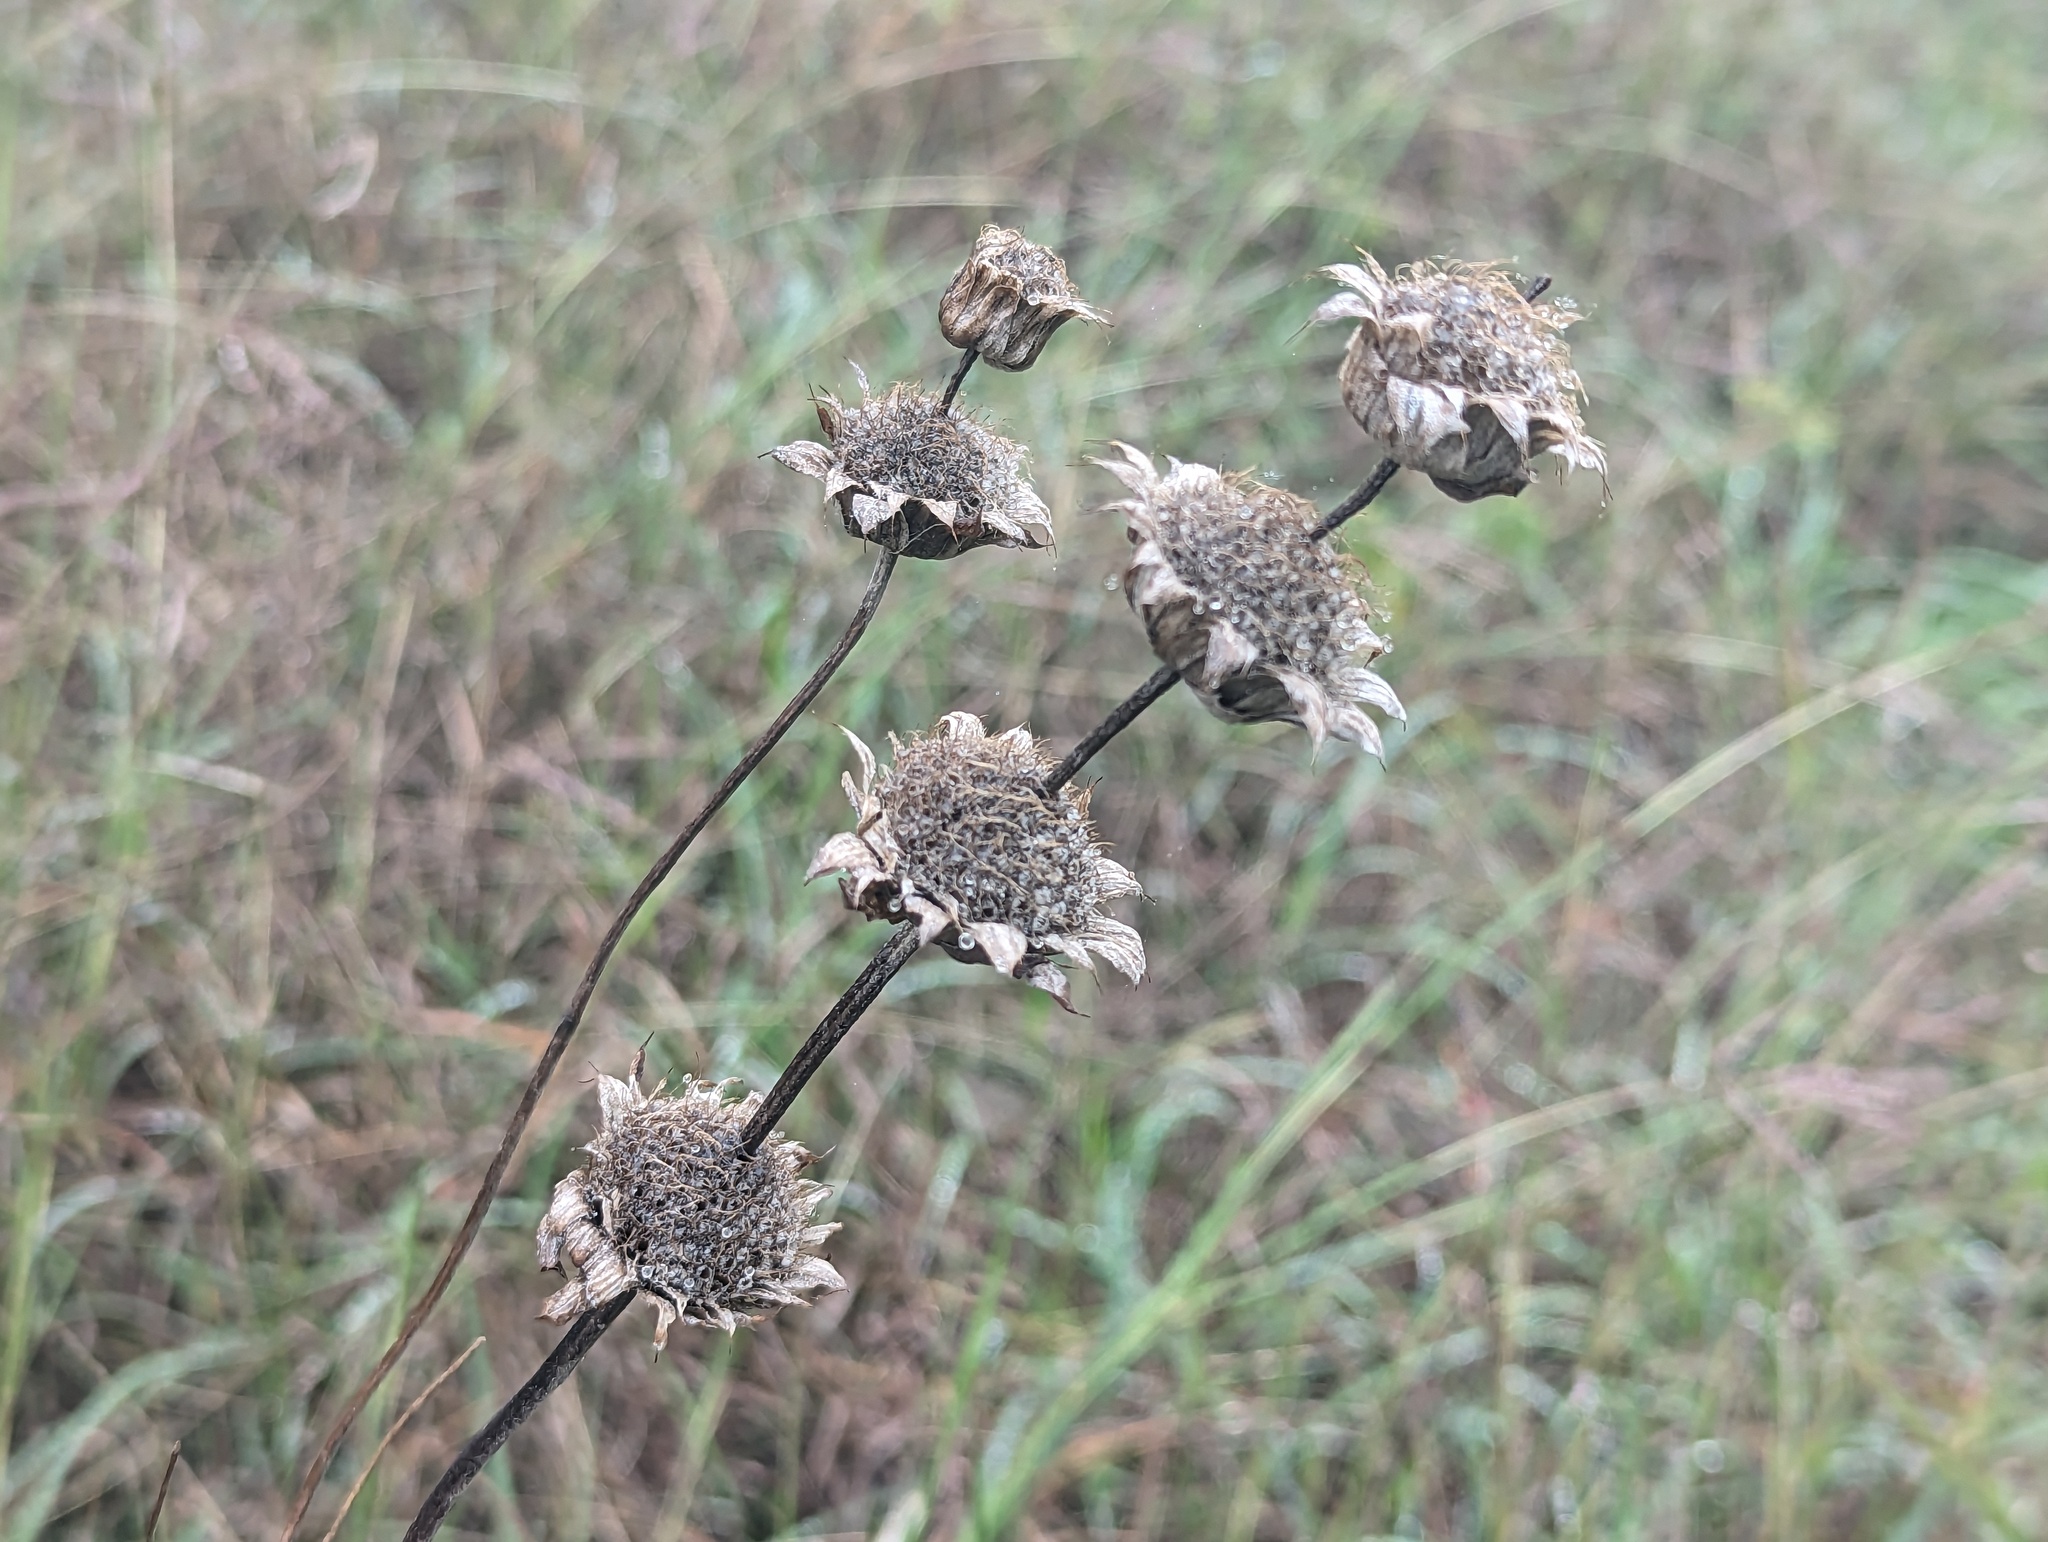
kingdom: Plantae
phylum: Tracheophyta
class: Magnoliopsida
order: Lamiales
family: Lamiaceae
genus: Monarda
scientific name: Monarda citriodora
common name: Lemon beebalm
